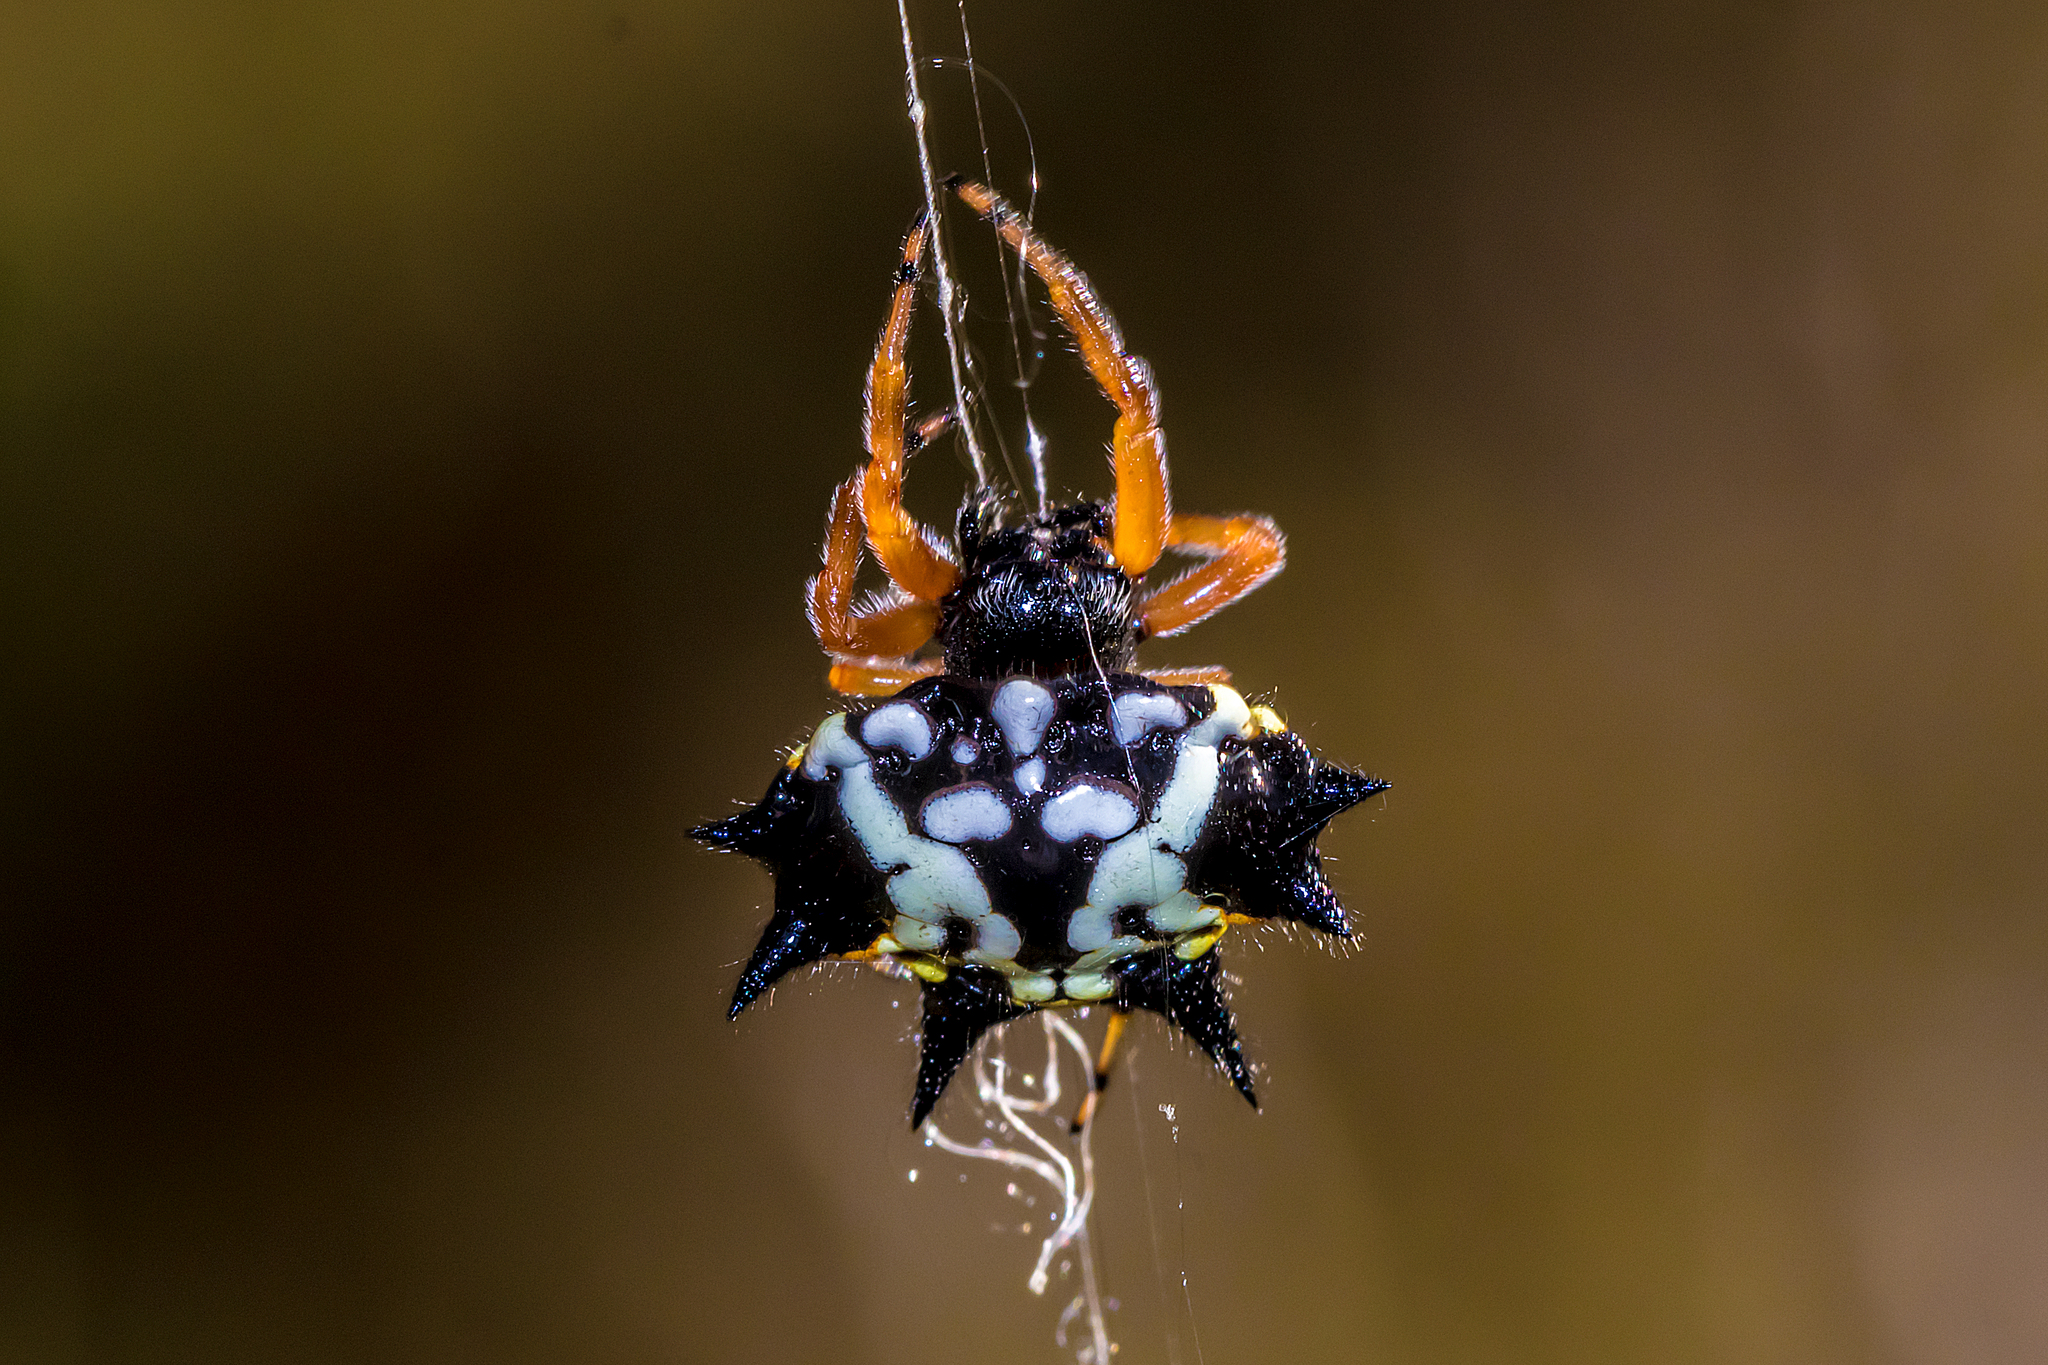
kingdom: Animalia
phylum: Arthropoda
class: Arachnida
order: Araneae
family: Araneidae
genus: Austracantha
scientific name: Austracantha minax
